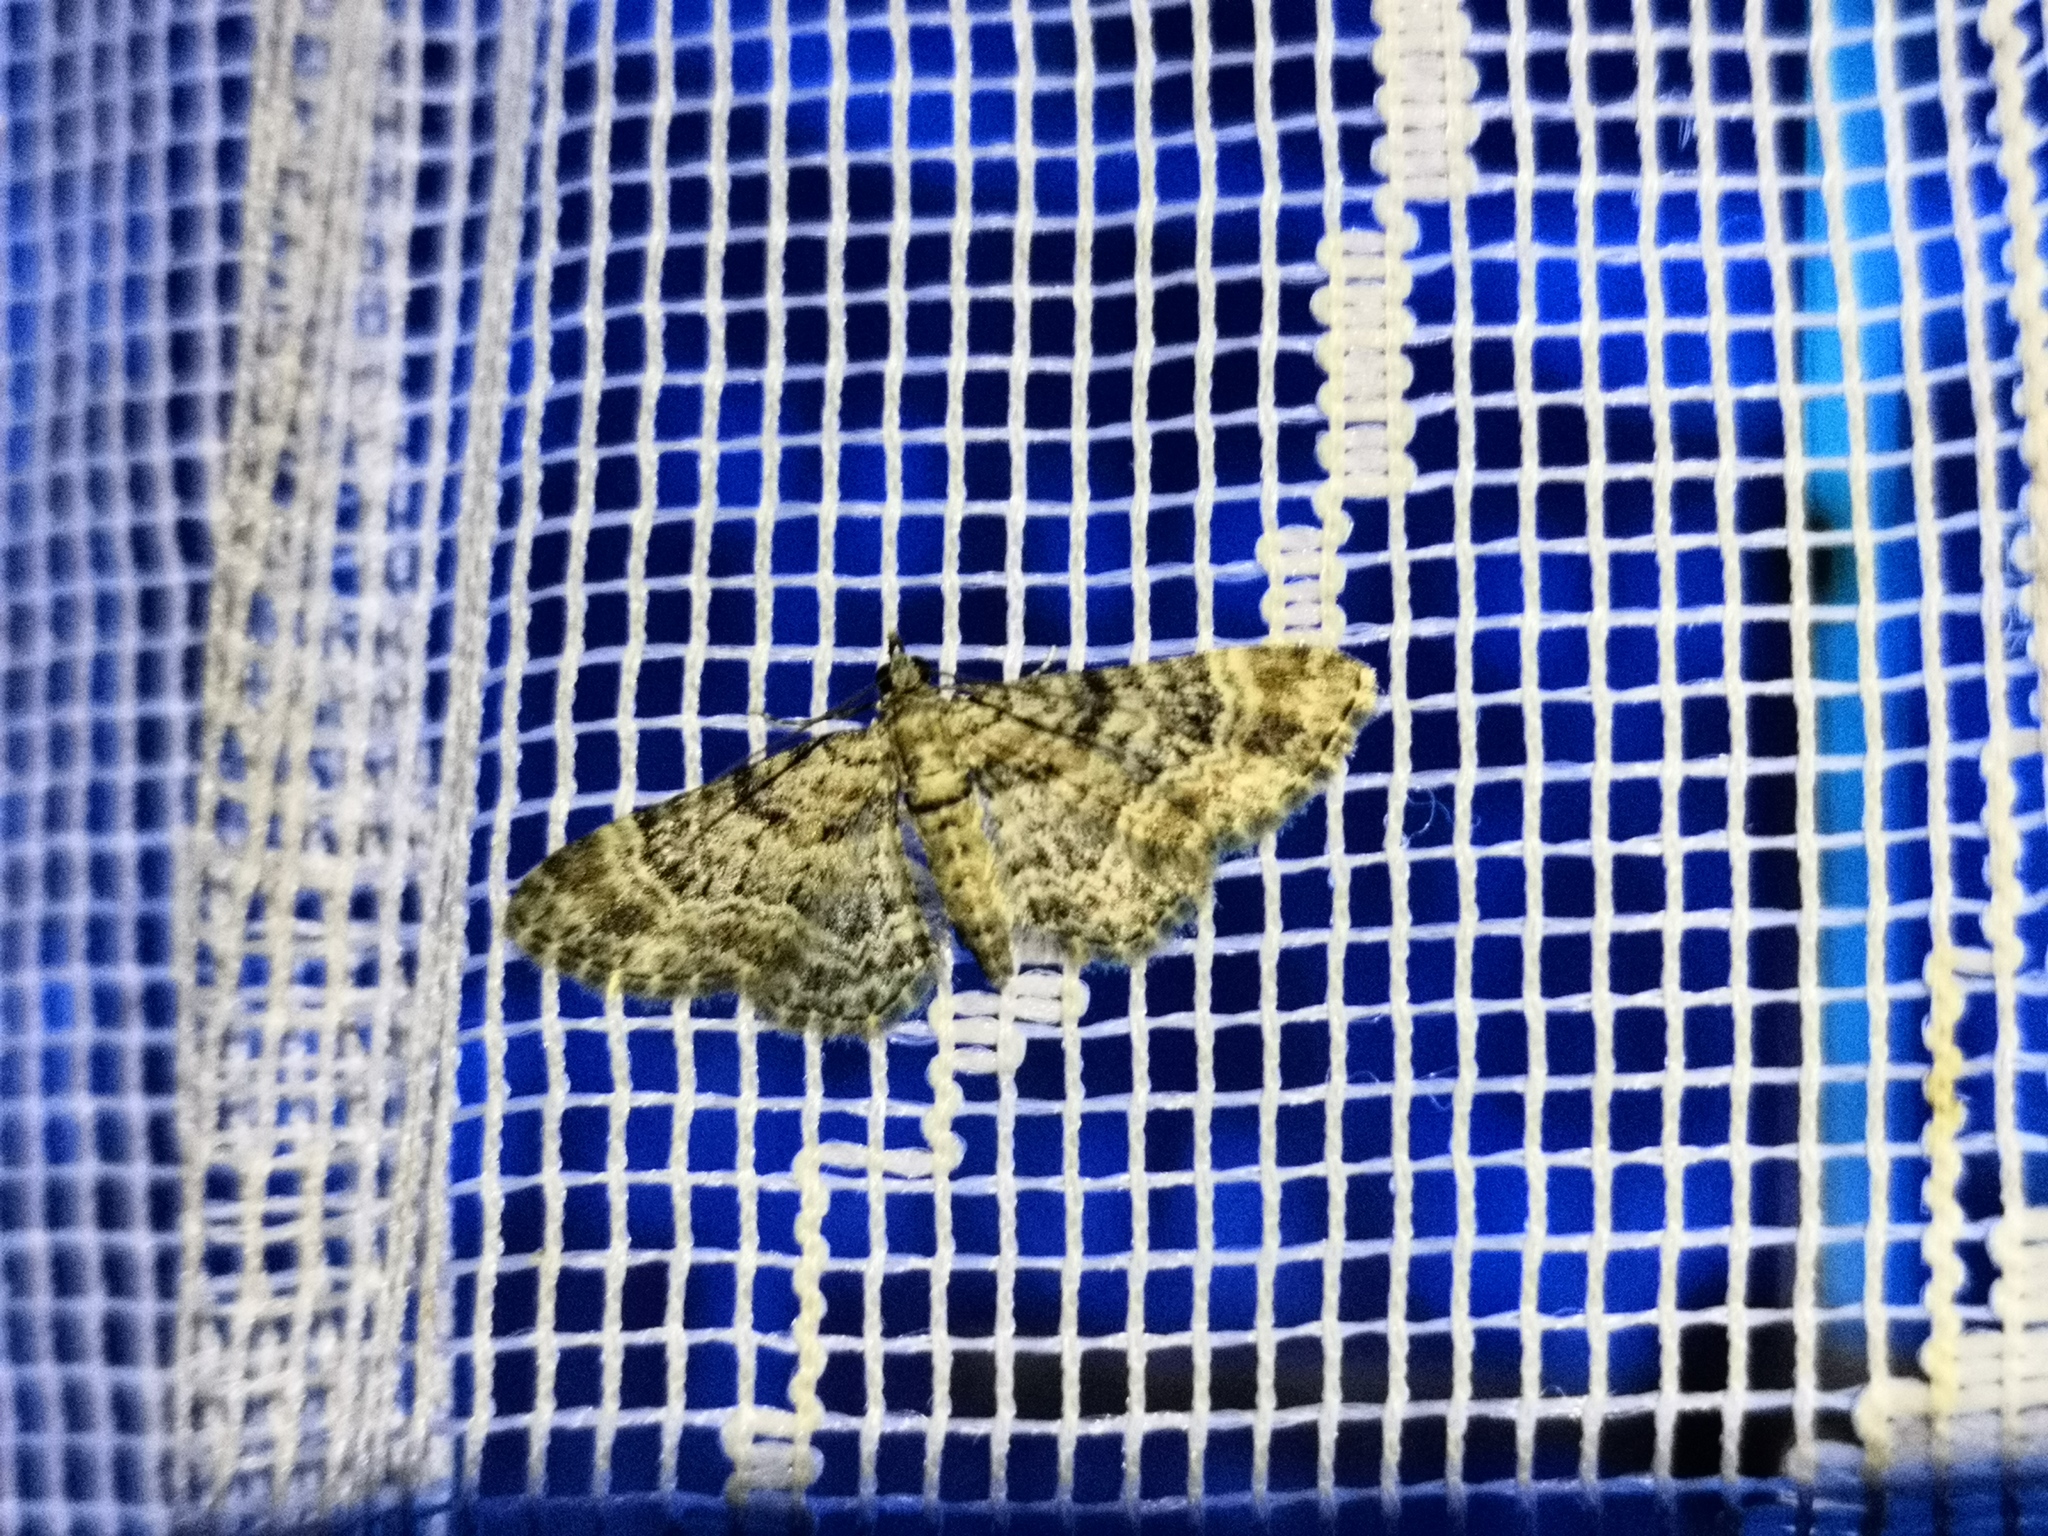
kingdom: Animalia
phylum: Arthropoda
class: Insecta
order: Lepidoptera
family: Geometridae
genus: Gymnoscelis
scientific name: Gymnoscelis rufifasciata
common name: Double-striped pug
